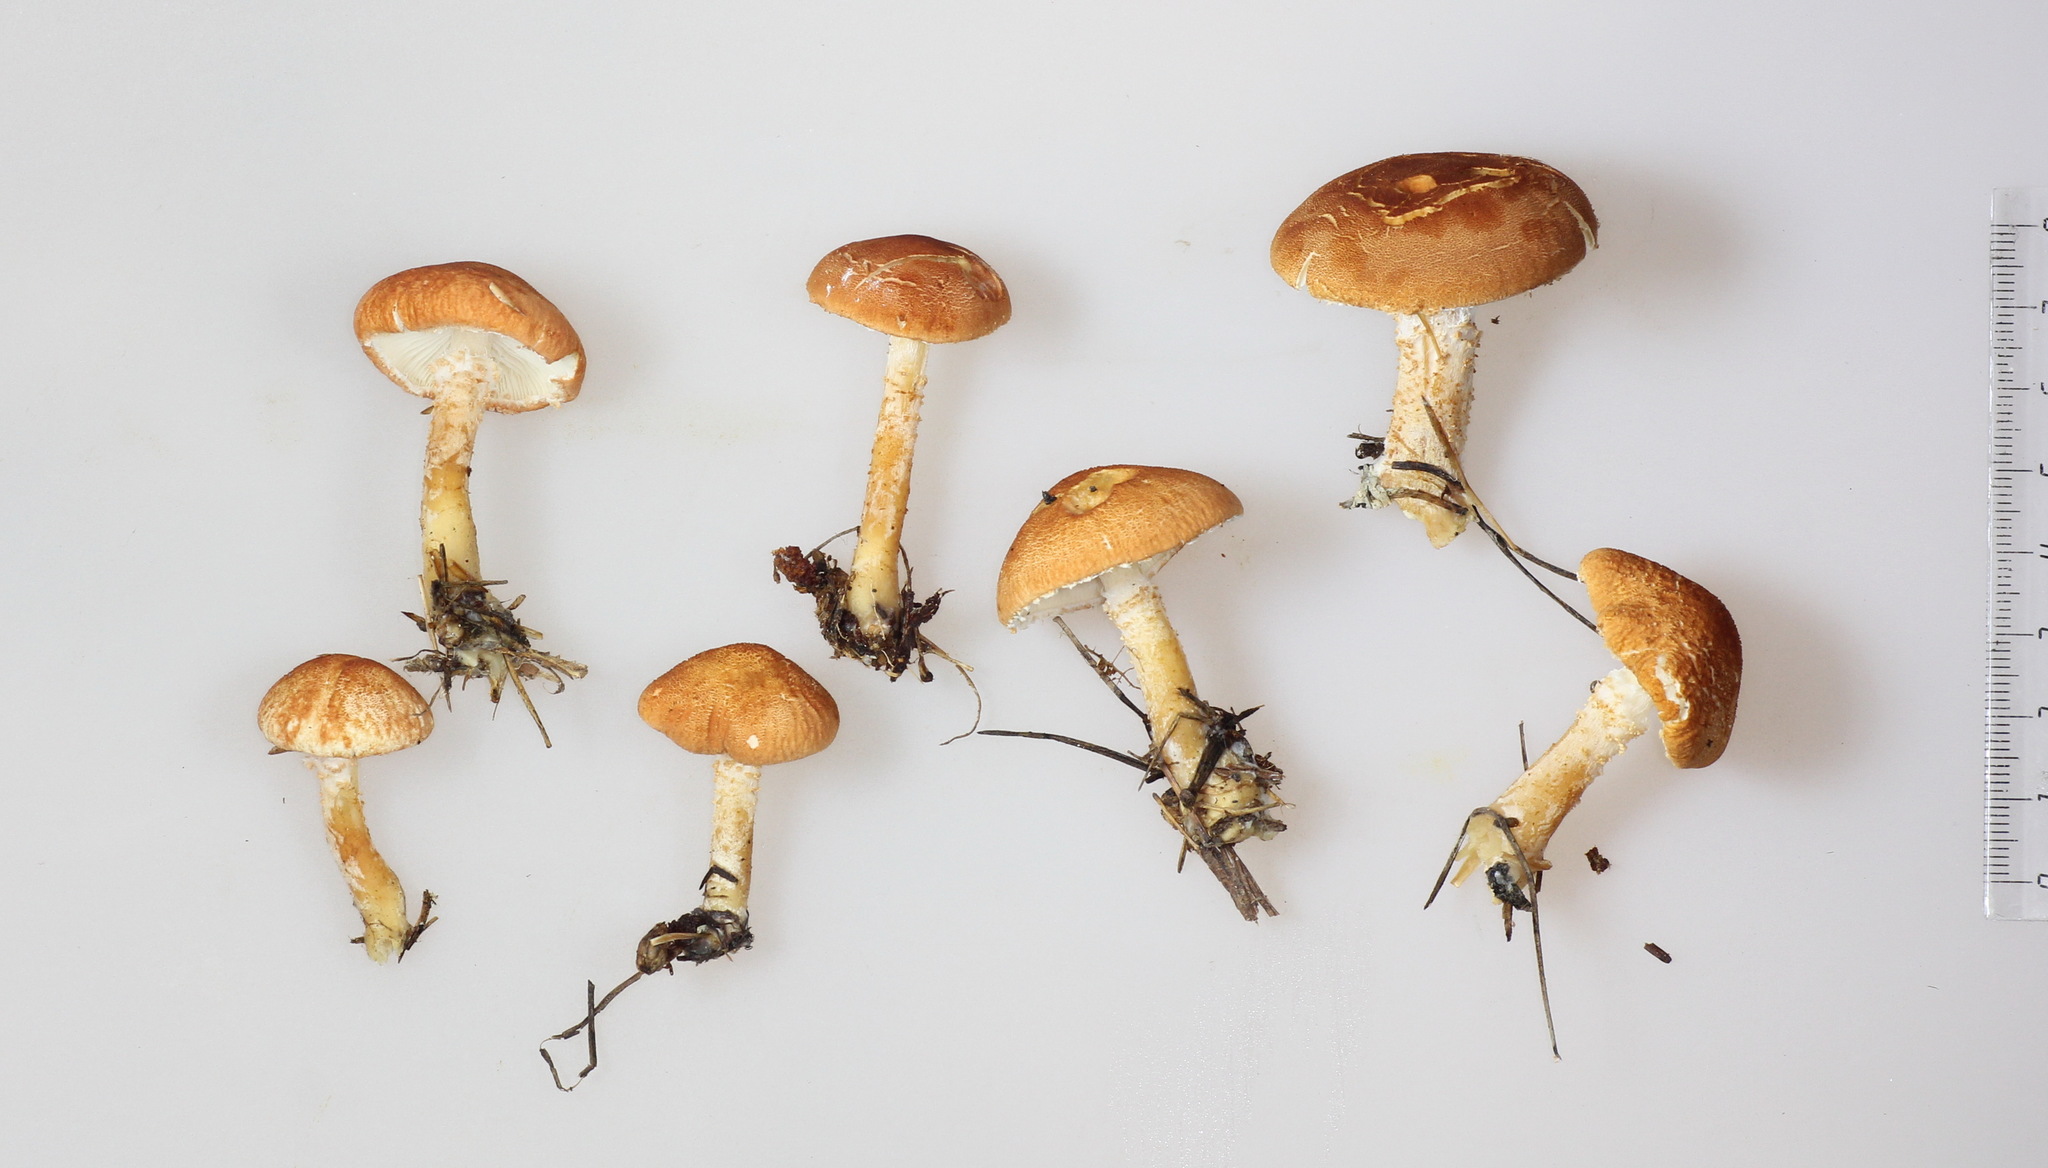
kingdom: Fungi
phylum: Basidiomycota
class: Agaricomycetes
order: Agaricales
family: Agaricaceae
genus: Cystodermella
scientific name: Cystodermella cinnabarina
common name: Cinnabar powdercap
